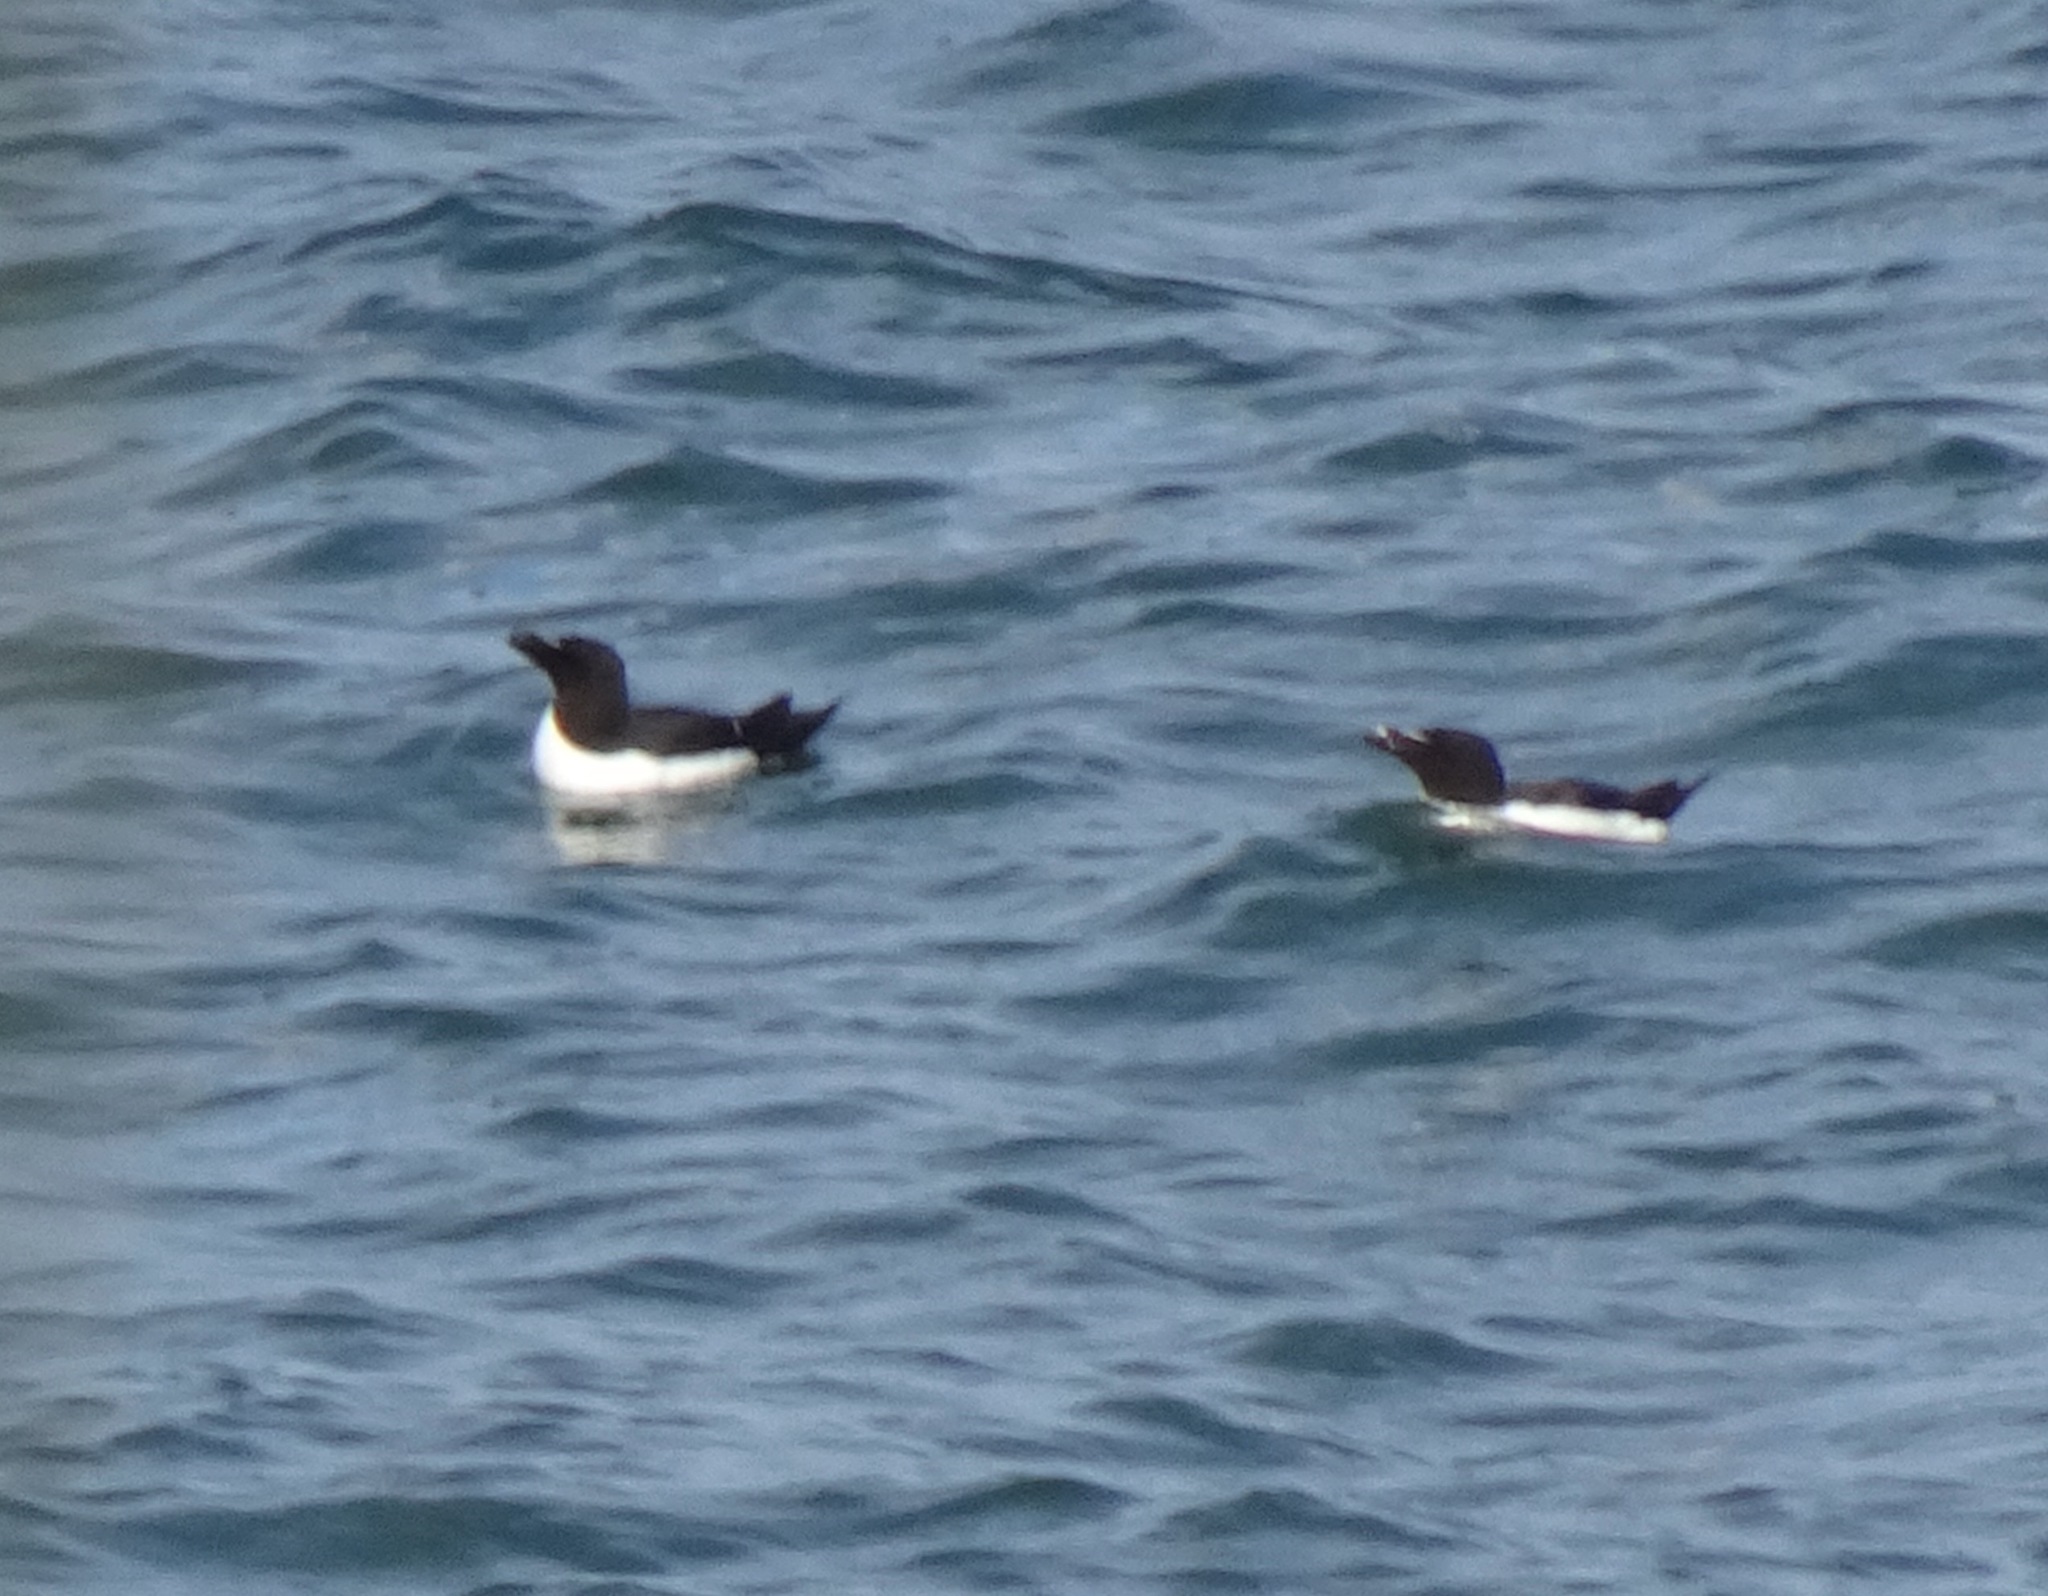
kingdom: Animalia
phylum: Chordata
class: Aves
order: Charadriiformes
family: Alcidae
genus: Alca
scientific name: Alca torda
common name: Razorbill
